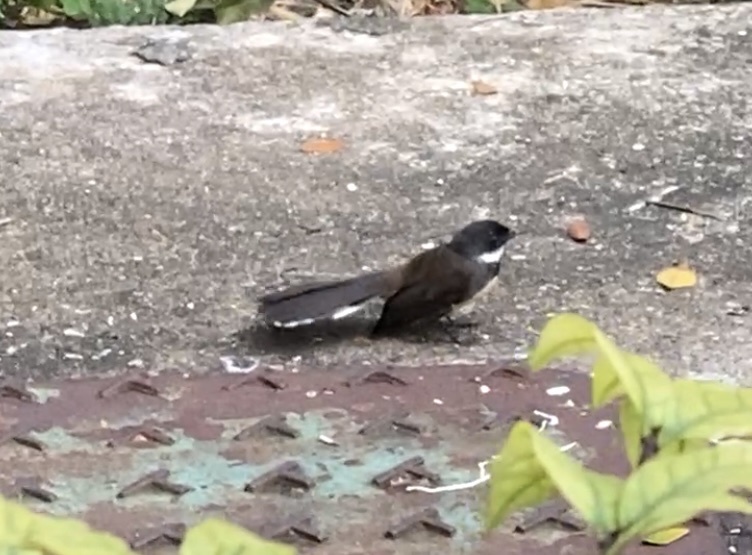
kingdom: Animalia
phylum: Chordata
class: Aves
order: Passeriformes
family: Rhipiduridae
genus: Rhipidura
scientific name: Rhipidura javanica
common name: Pied fantail
